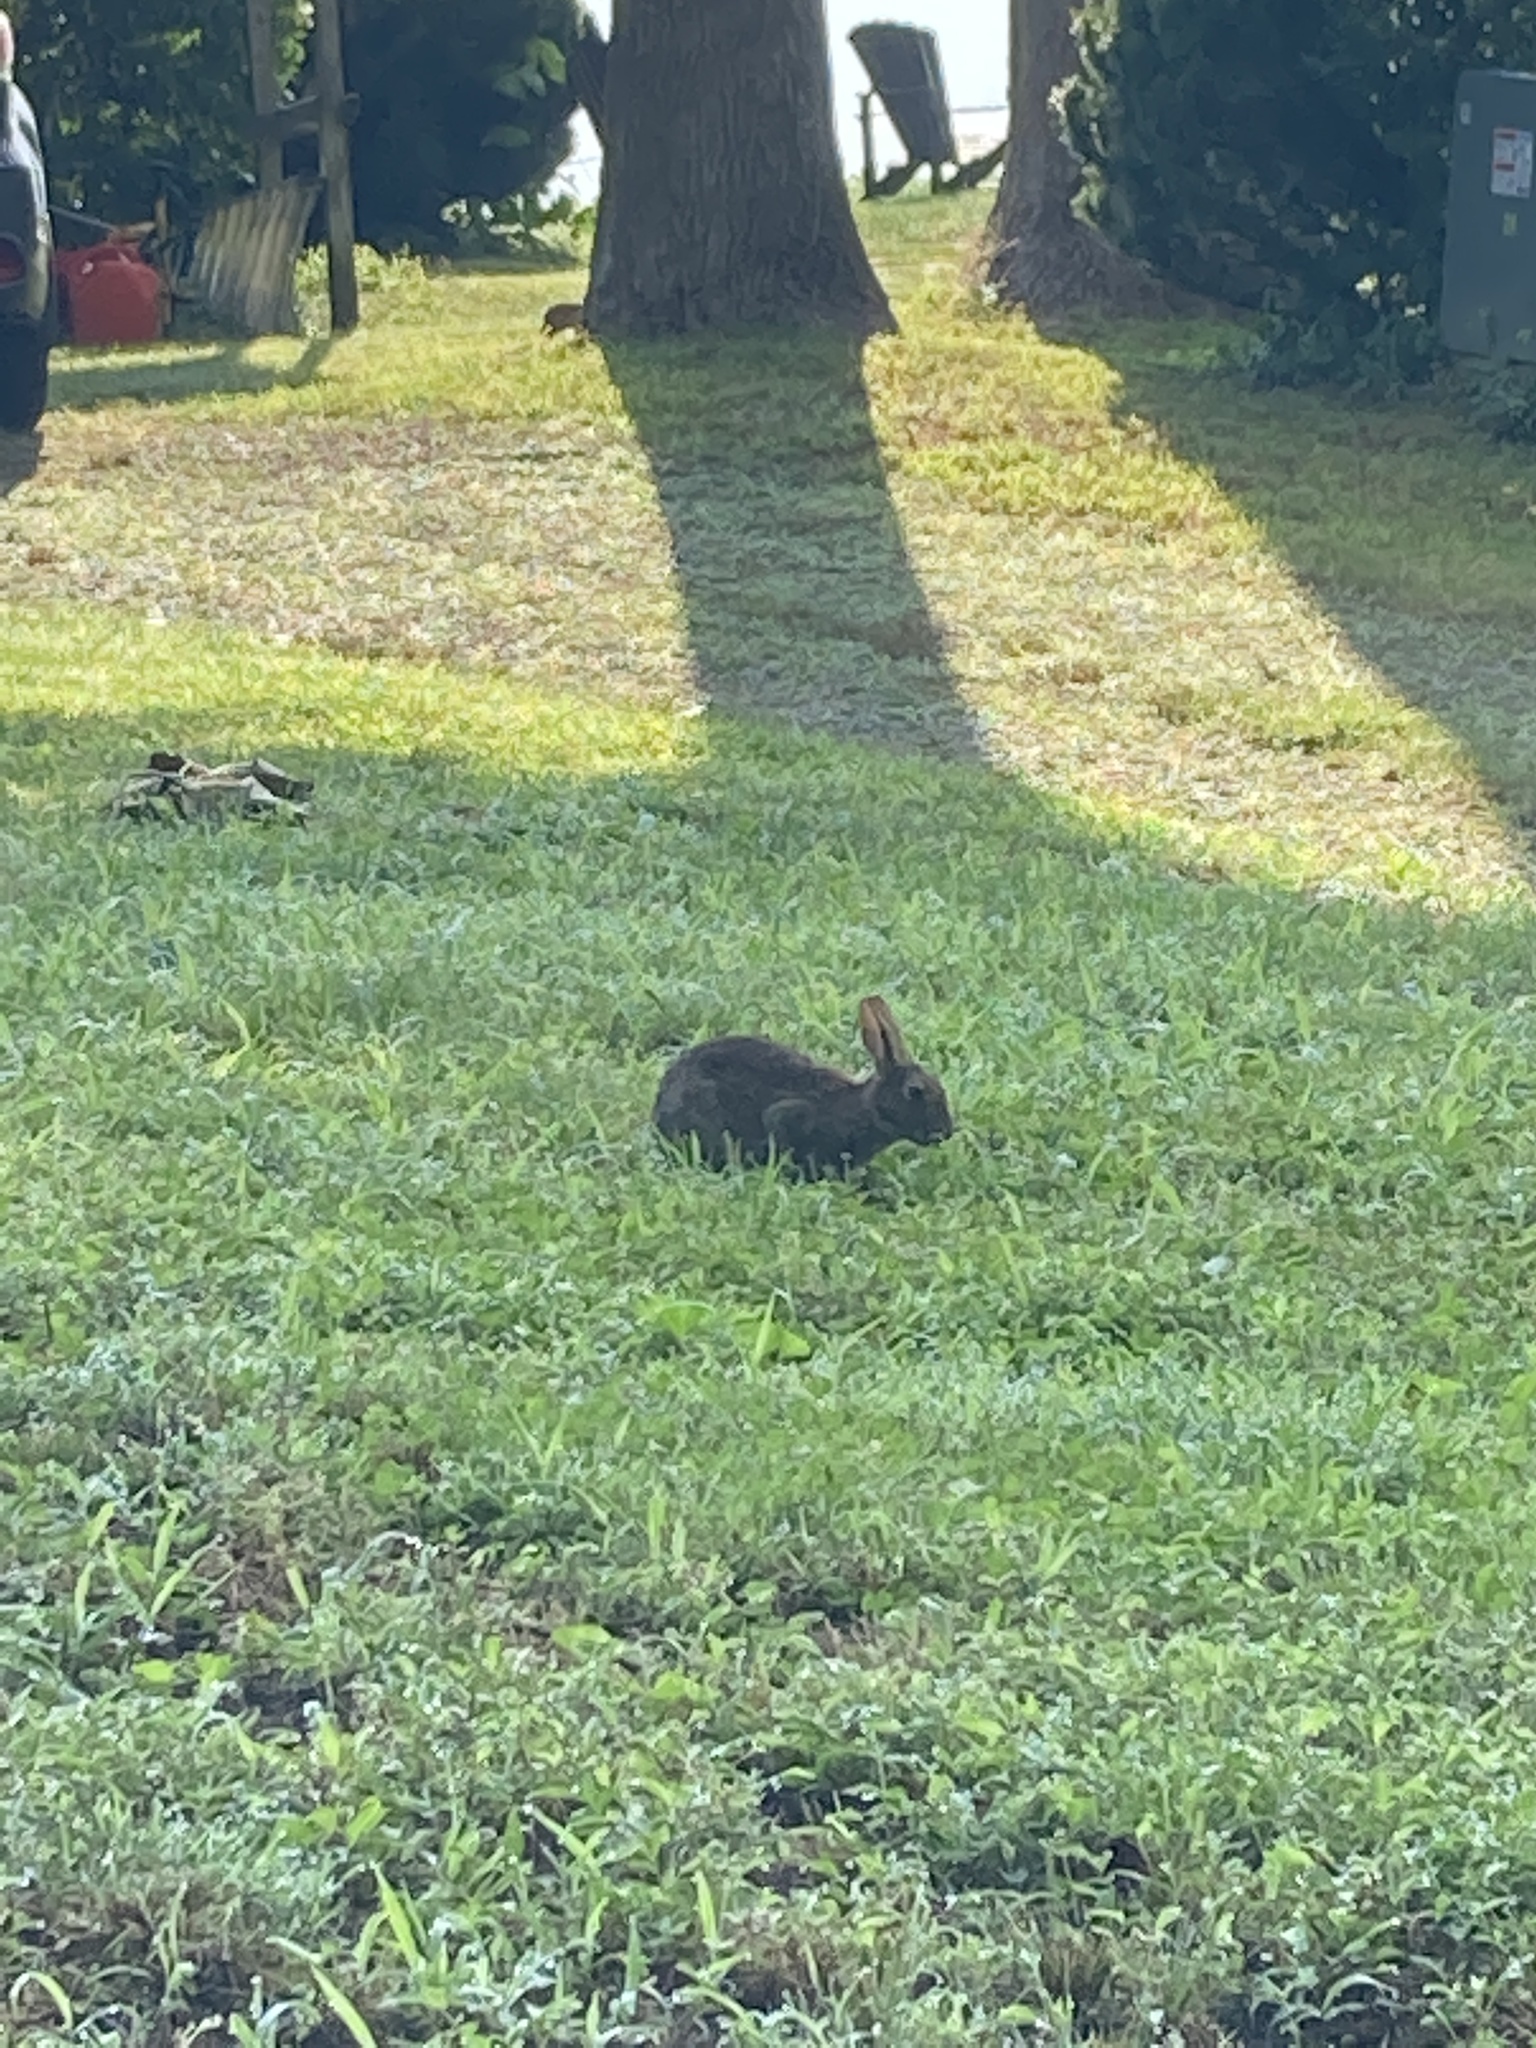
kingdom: Animalia
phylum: Chordata
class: Mammalia
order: Lagomorpha
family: Leporidae
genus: Sylvilagus
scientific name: Sylvilagus floridanus
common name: Eastern cottontail
